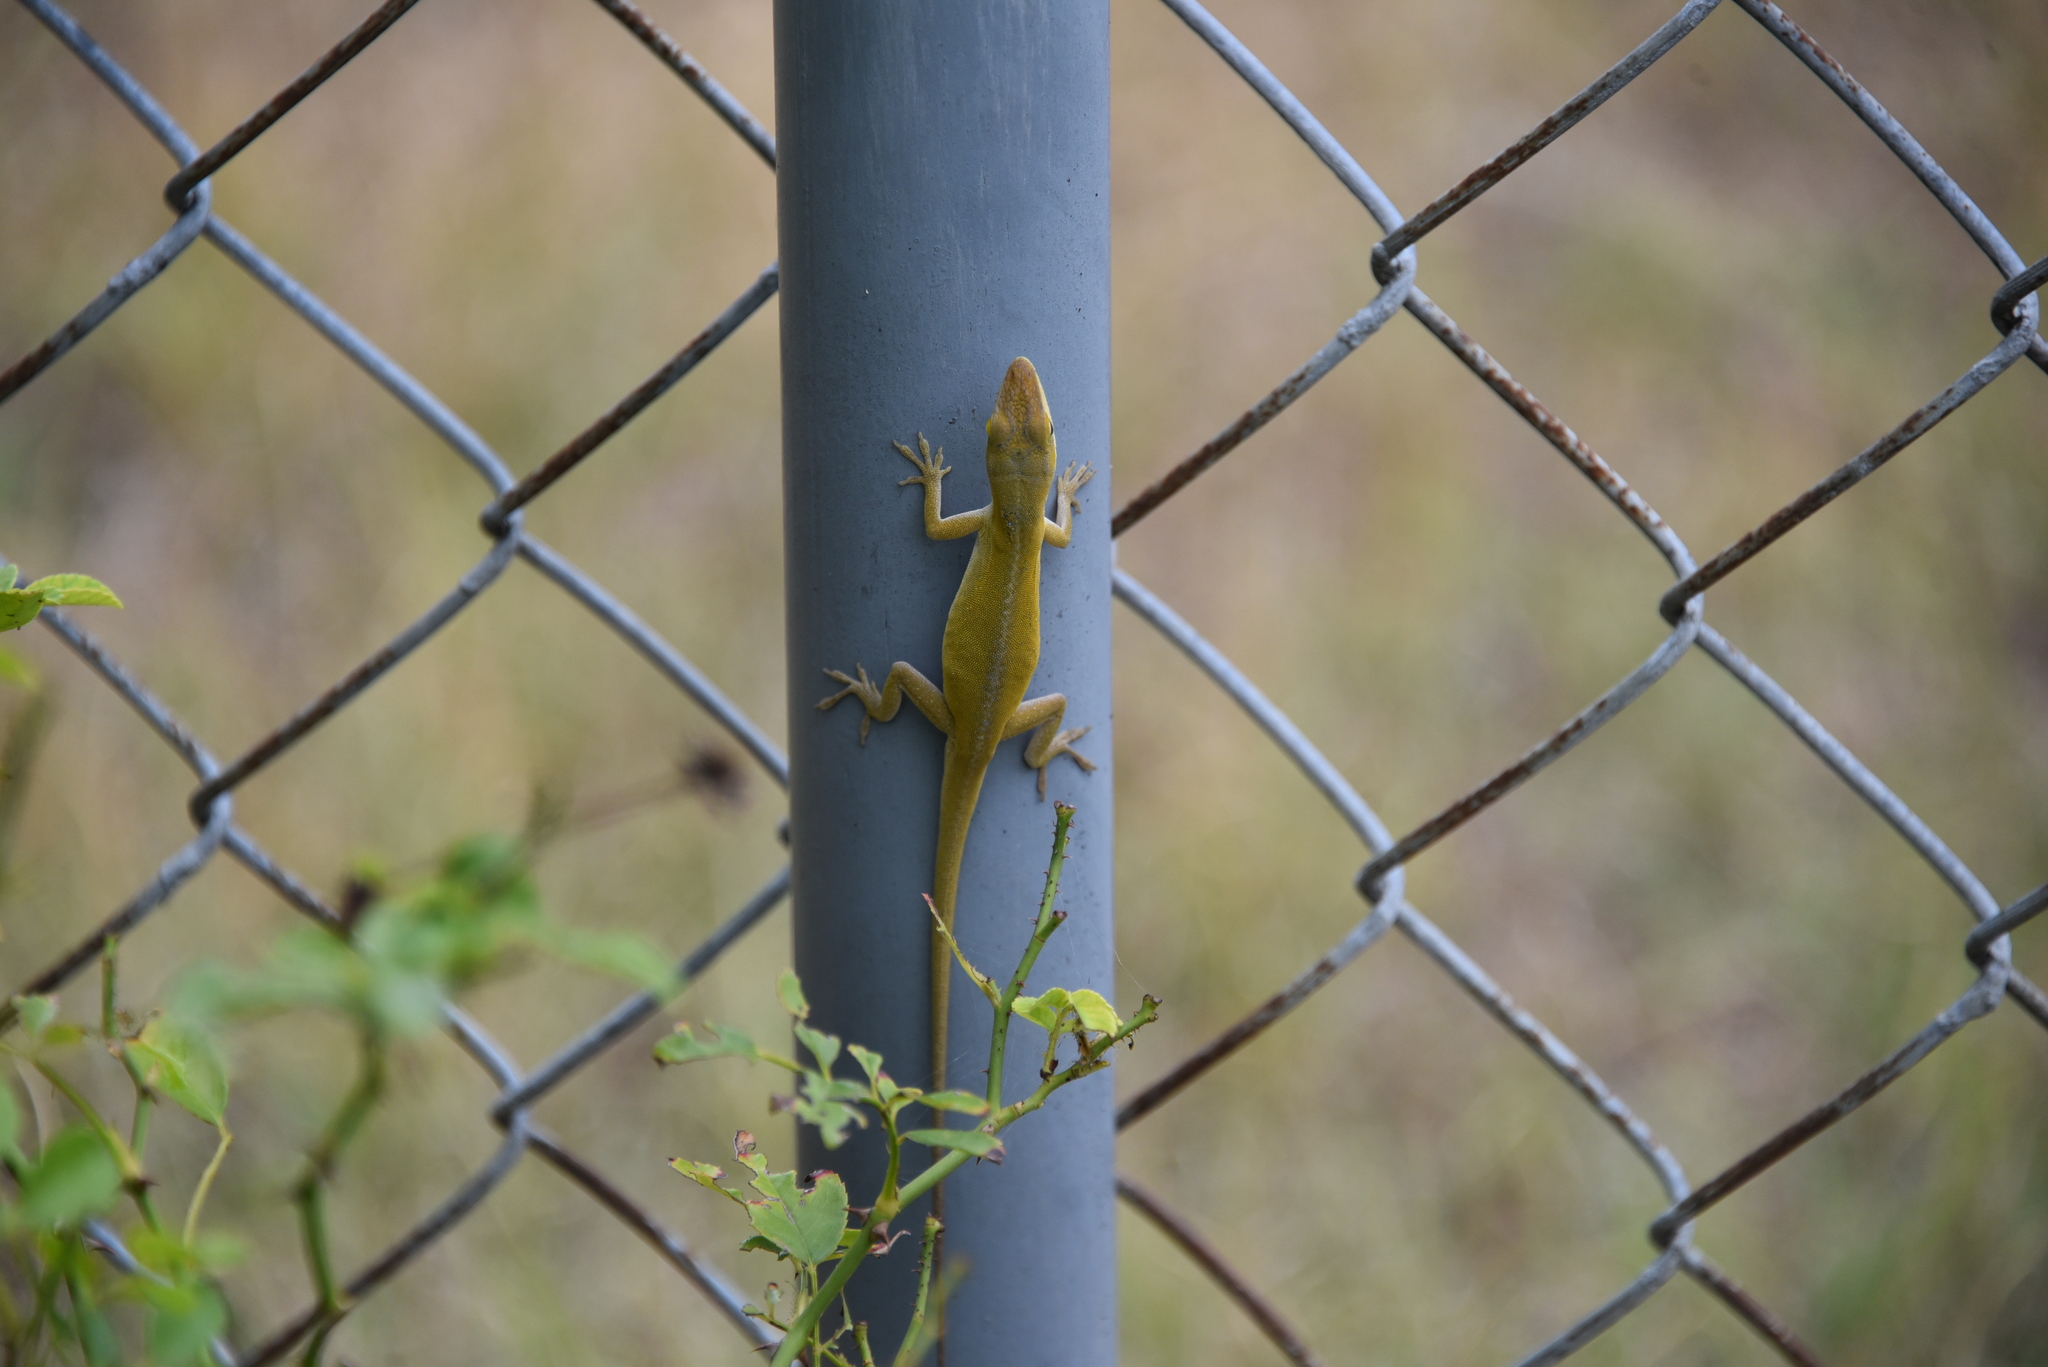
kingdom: Animalia
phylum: Chordata
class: Squamata
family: Dactyloidae
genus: Anolis
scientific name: Anolis carolinensis
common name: Green anole
